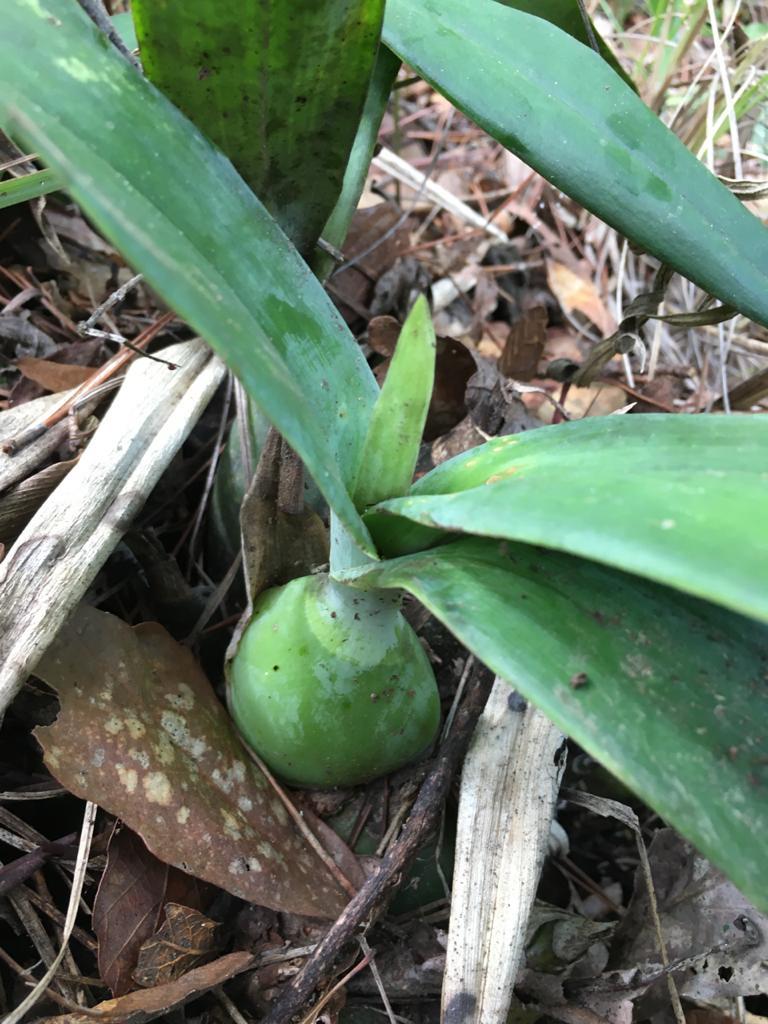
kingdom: Plantae
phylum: Tracheophyta
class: Liliopsida
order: Asparagales
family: Orchidaceae
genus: Prosthechea
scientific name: Prosthechea michuacana
